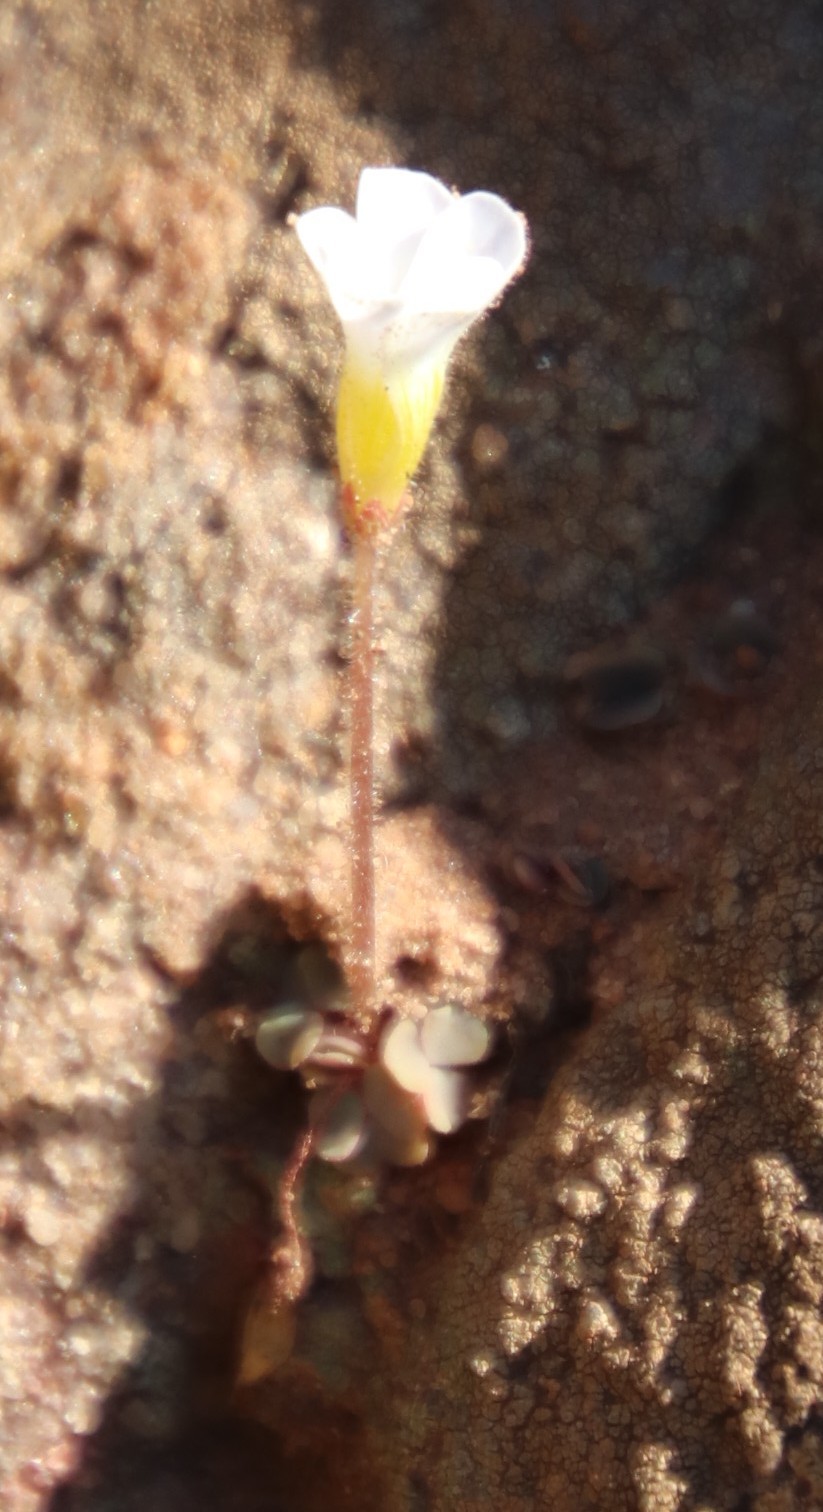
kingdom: Plantae
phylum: Tracheophyta
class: Magnoliopsida
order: Oxalidales
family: Oxalidaceae
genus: Oxalis
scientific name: Oxalis punctata
